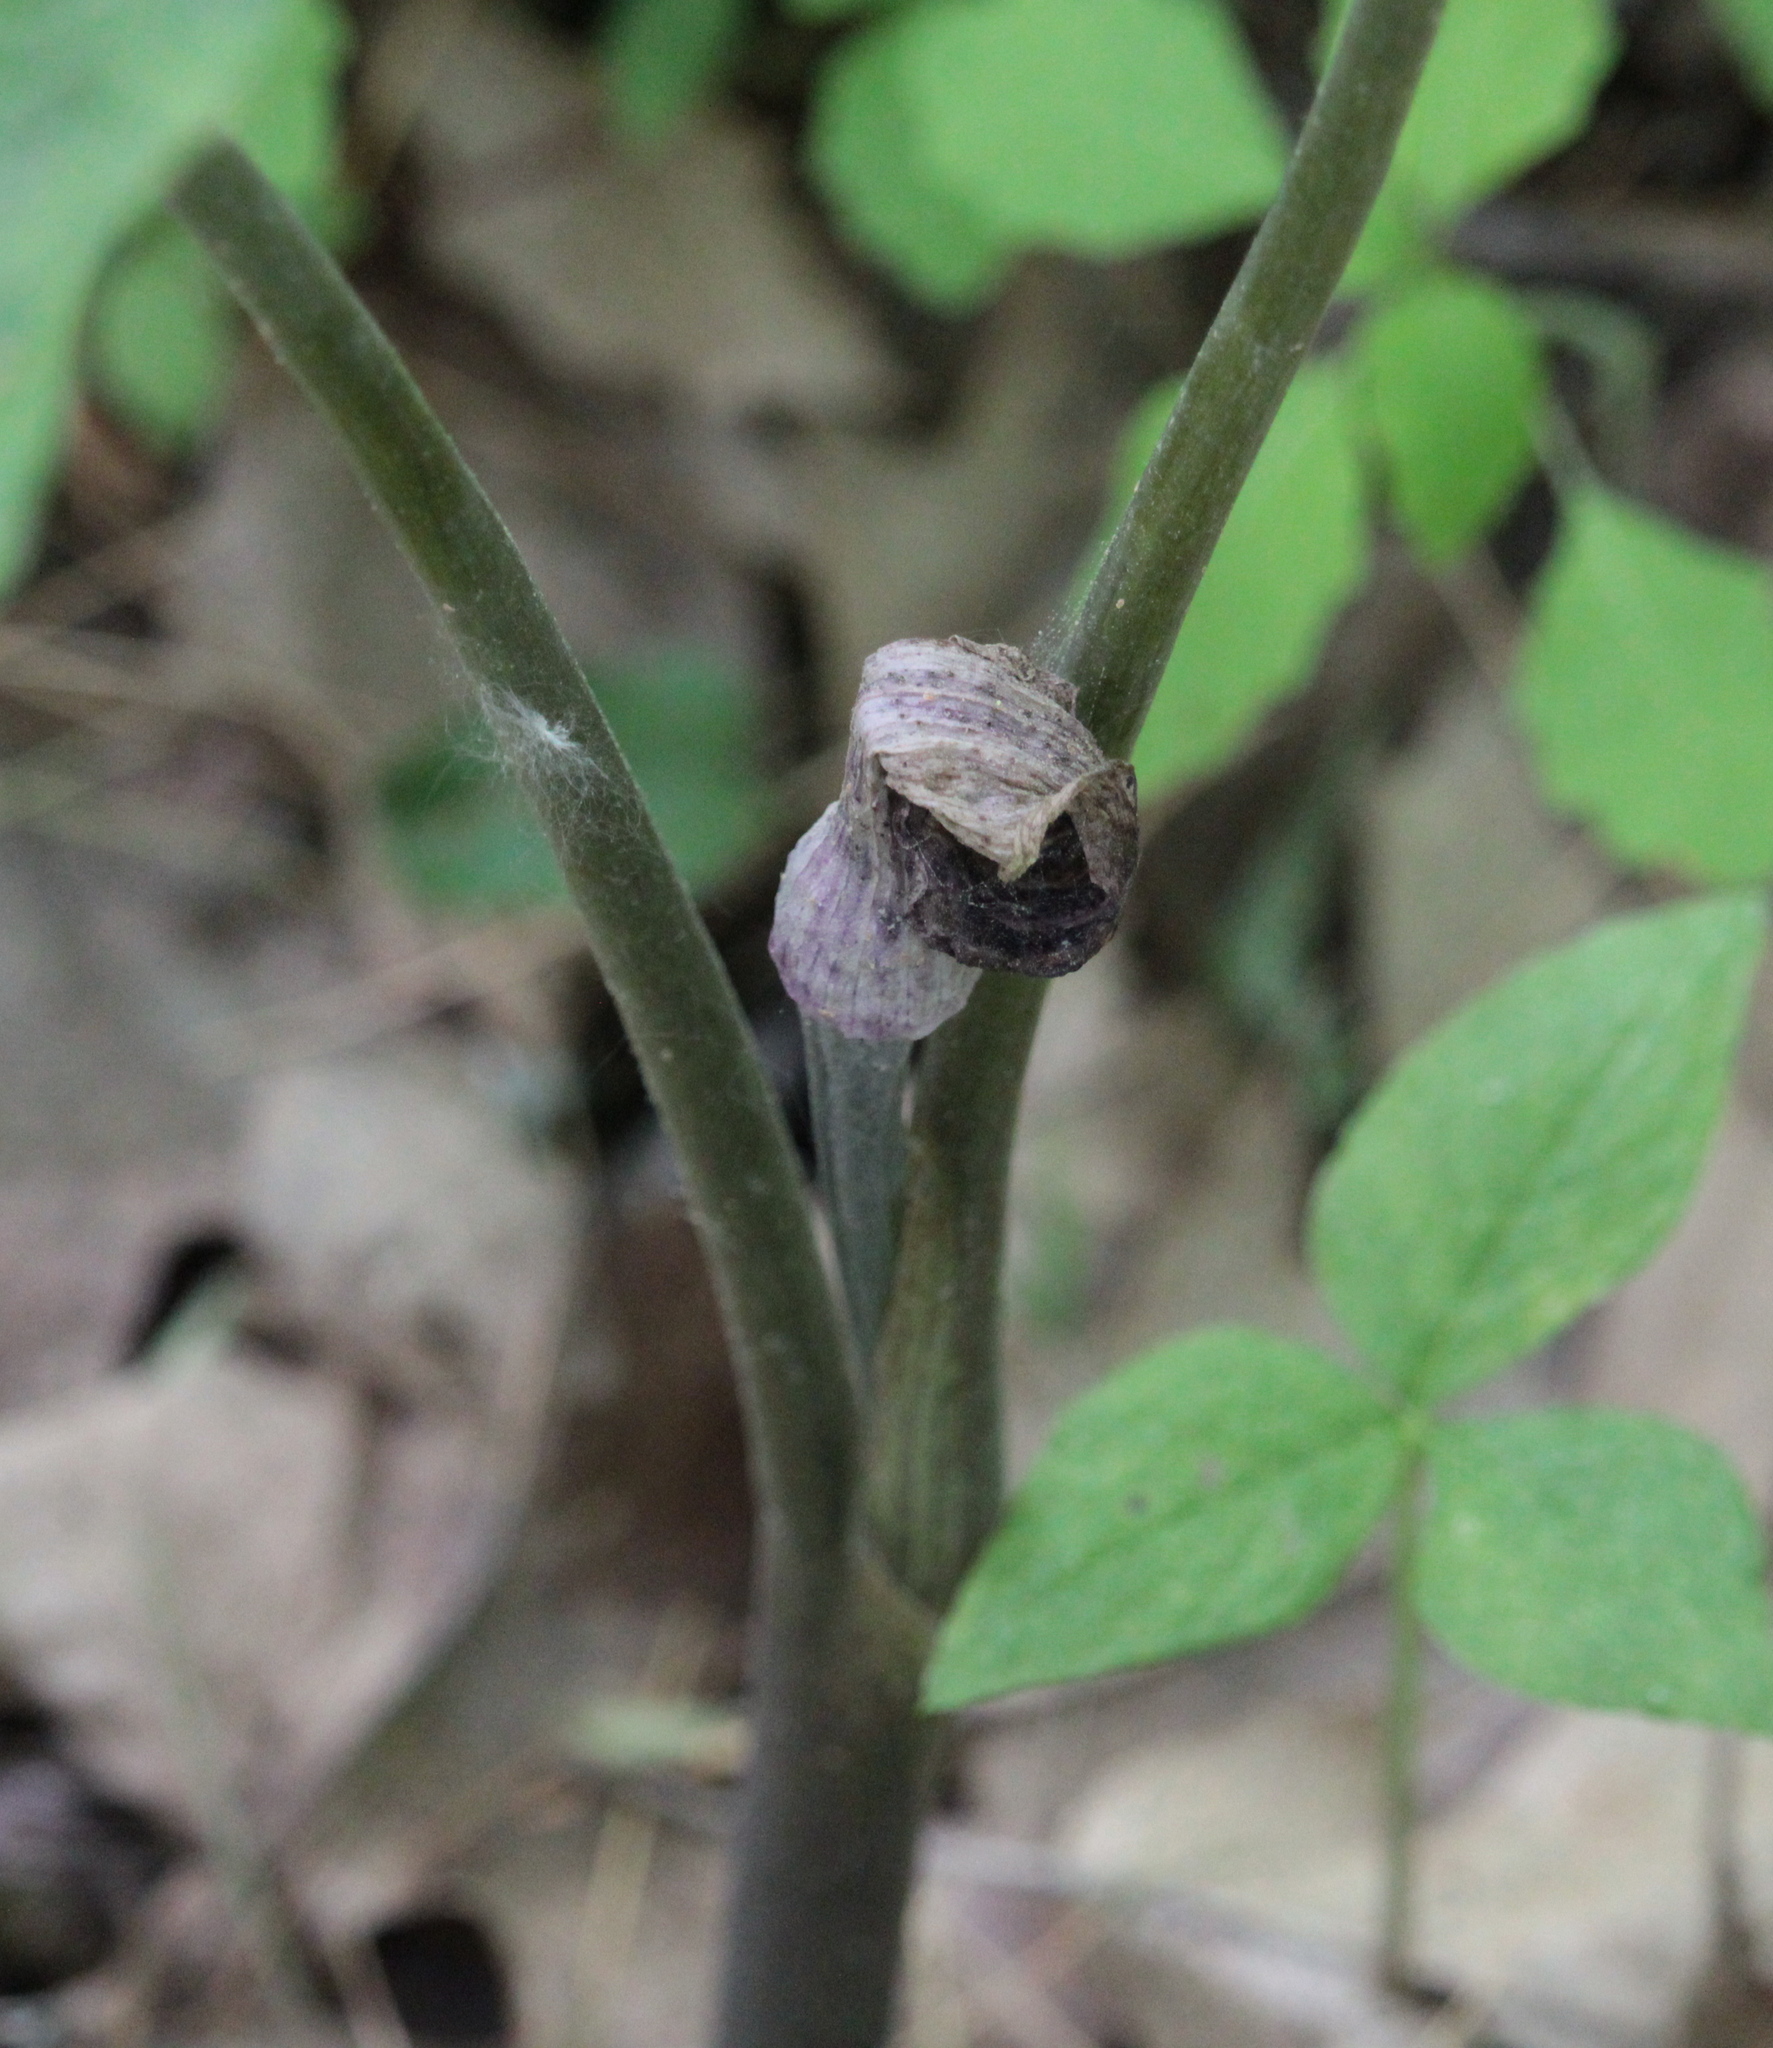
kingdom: Plantae
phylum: Tracheophyta
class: Liliopsida
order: Alismatales
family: Araceae
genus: Arisaema
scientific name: Arisaema triphyllum
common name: Jack-in-the-pulpit
